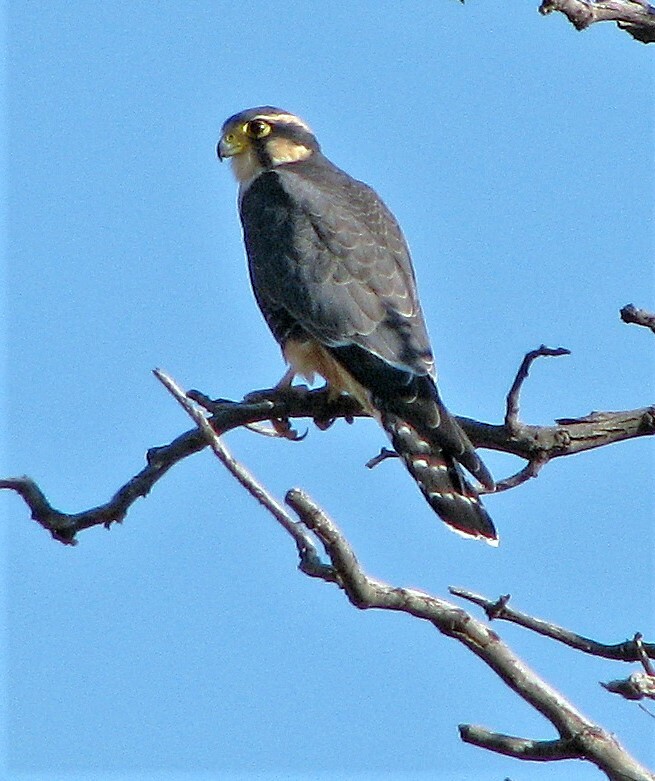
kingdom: Animalia
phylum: Chordata
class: Aves
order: Falconiformes
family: Falconidae
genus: Falco
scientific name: Falco femoralis
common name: Aplomado falcon
